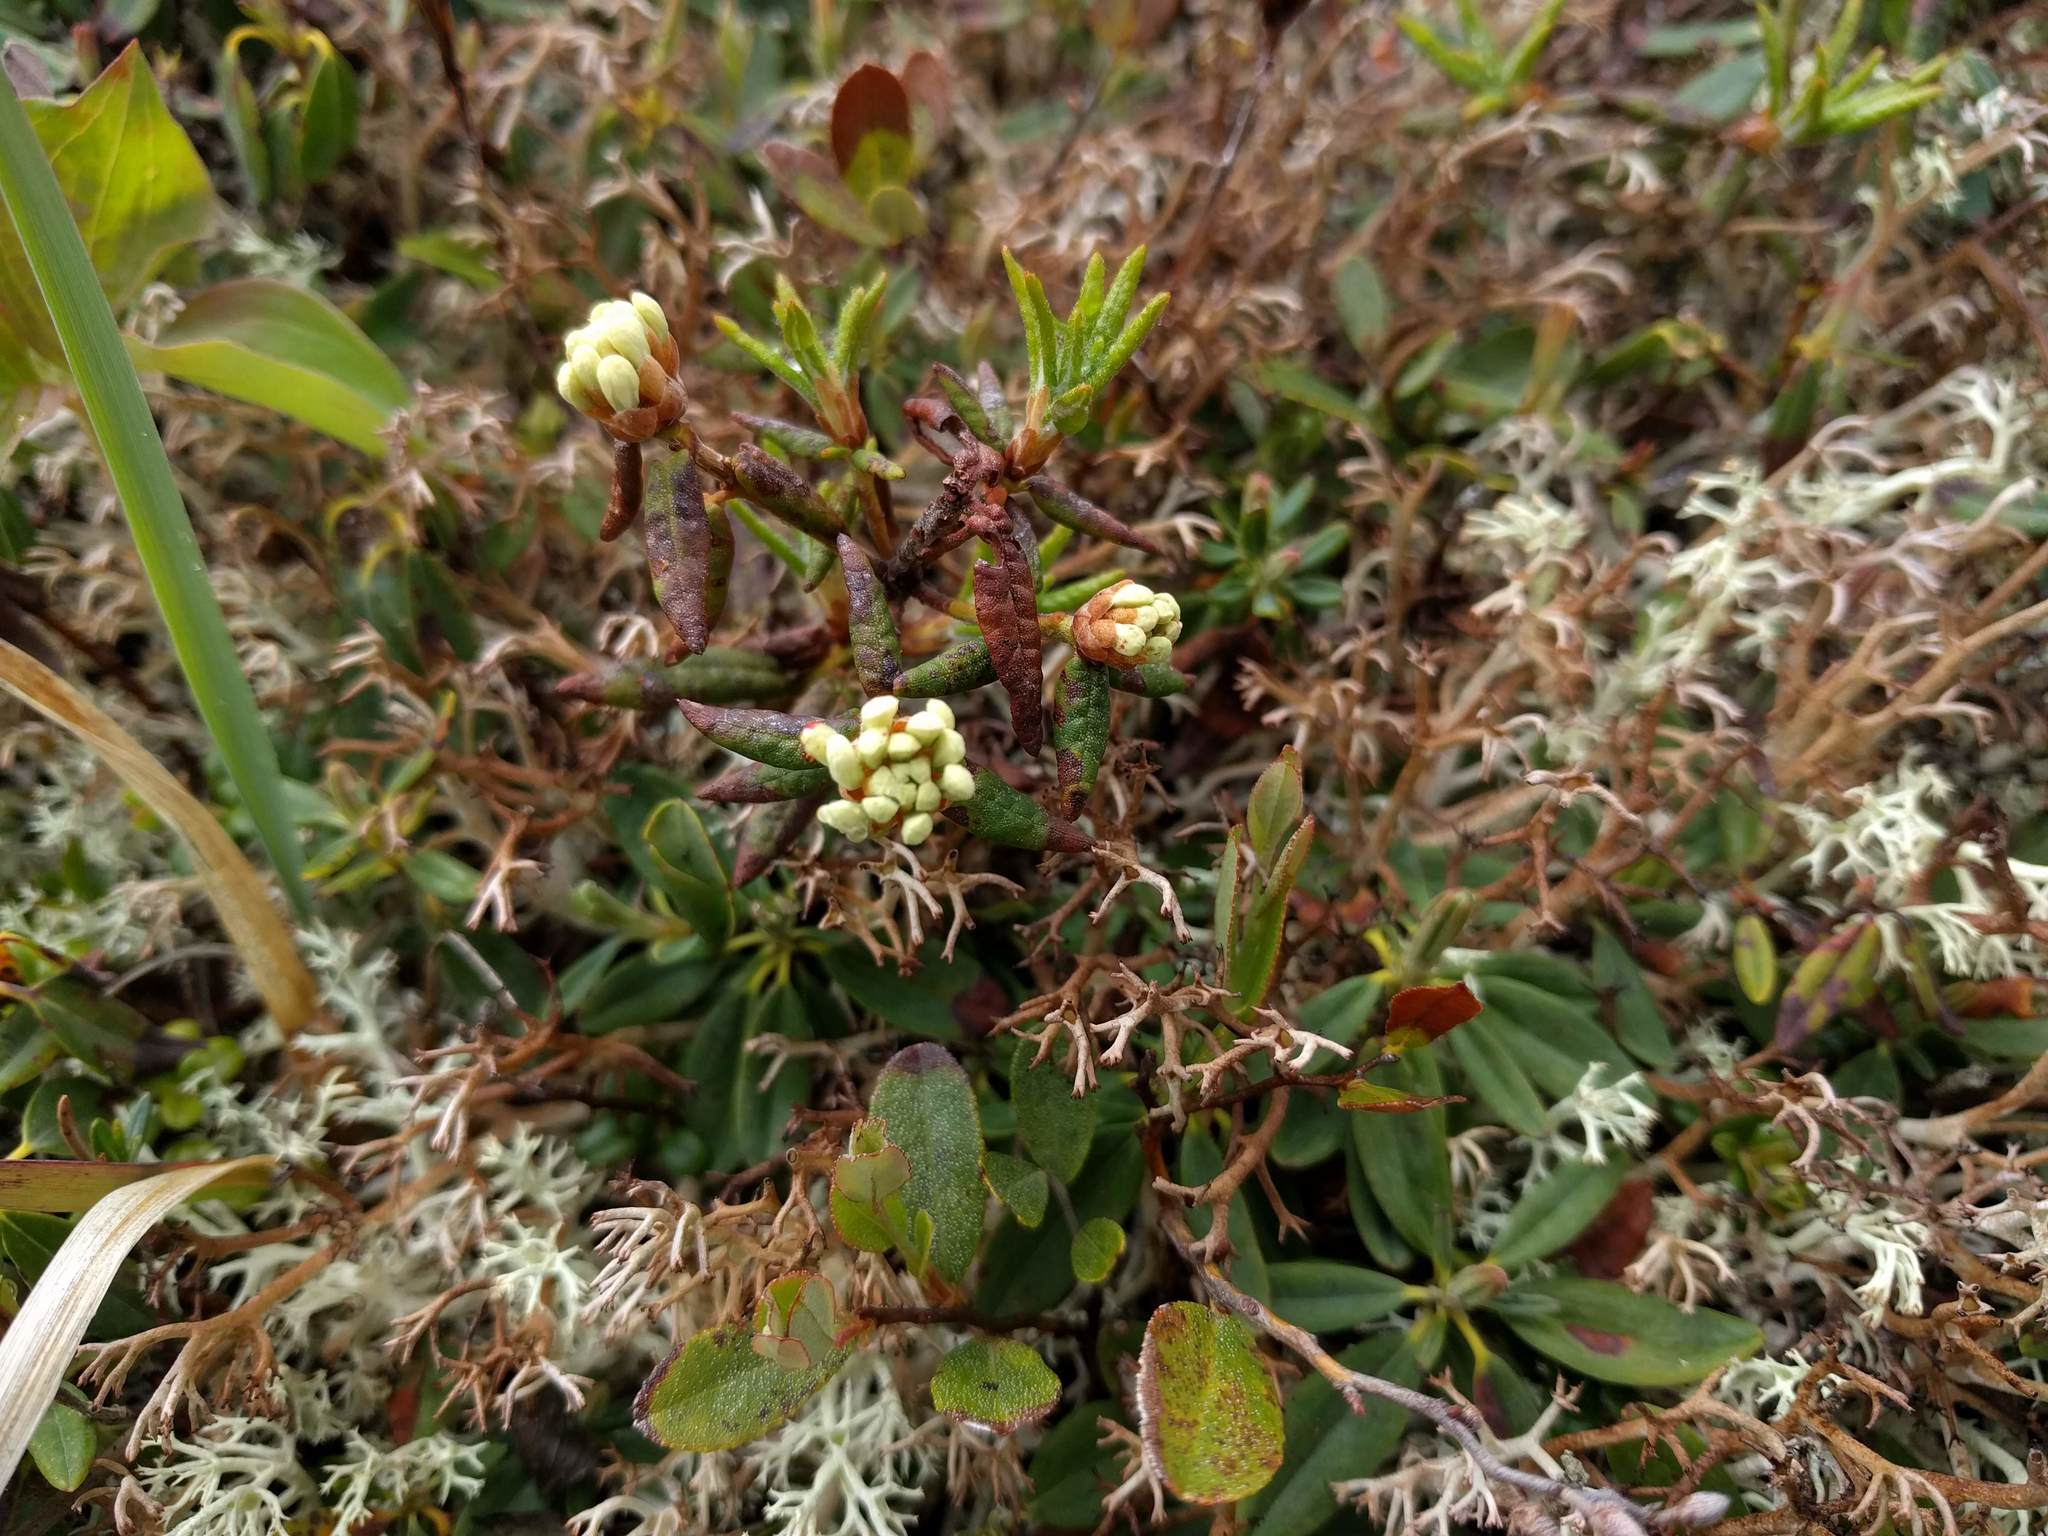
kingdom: Plantae
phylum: Tracheophyta
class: Magnoliopsida
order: Ericales
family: Ericaceae
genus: Rhododendron
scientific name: Rhododendron groenlandicum
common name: Bog labrador tea
